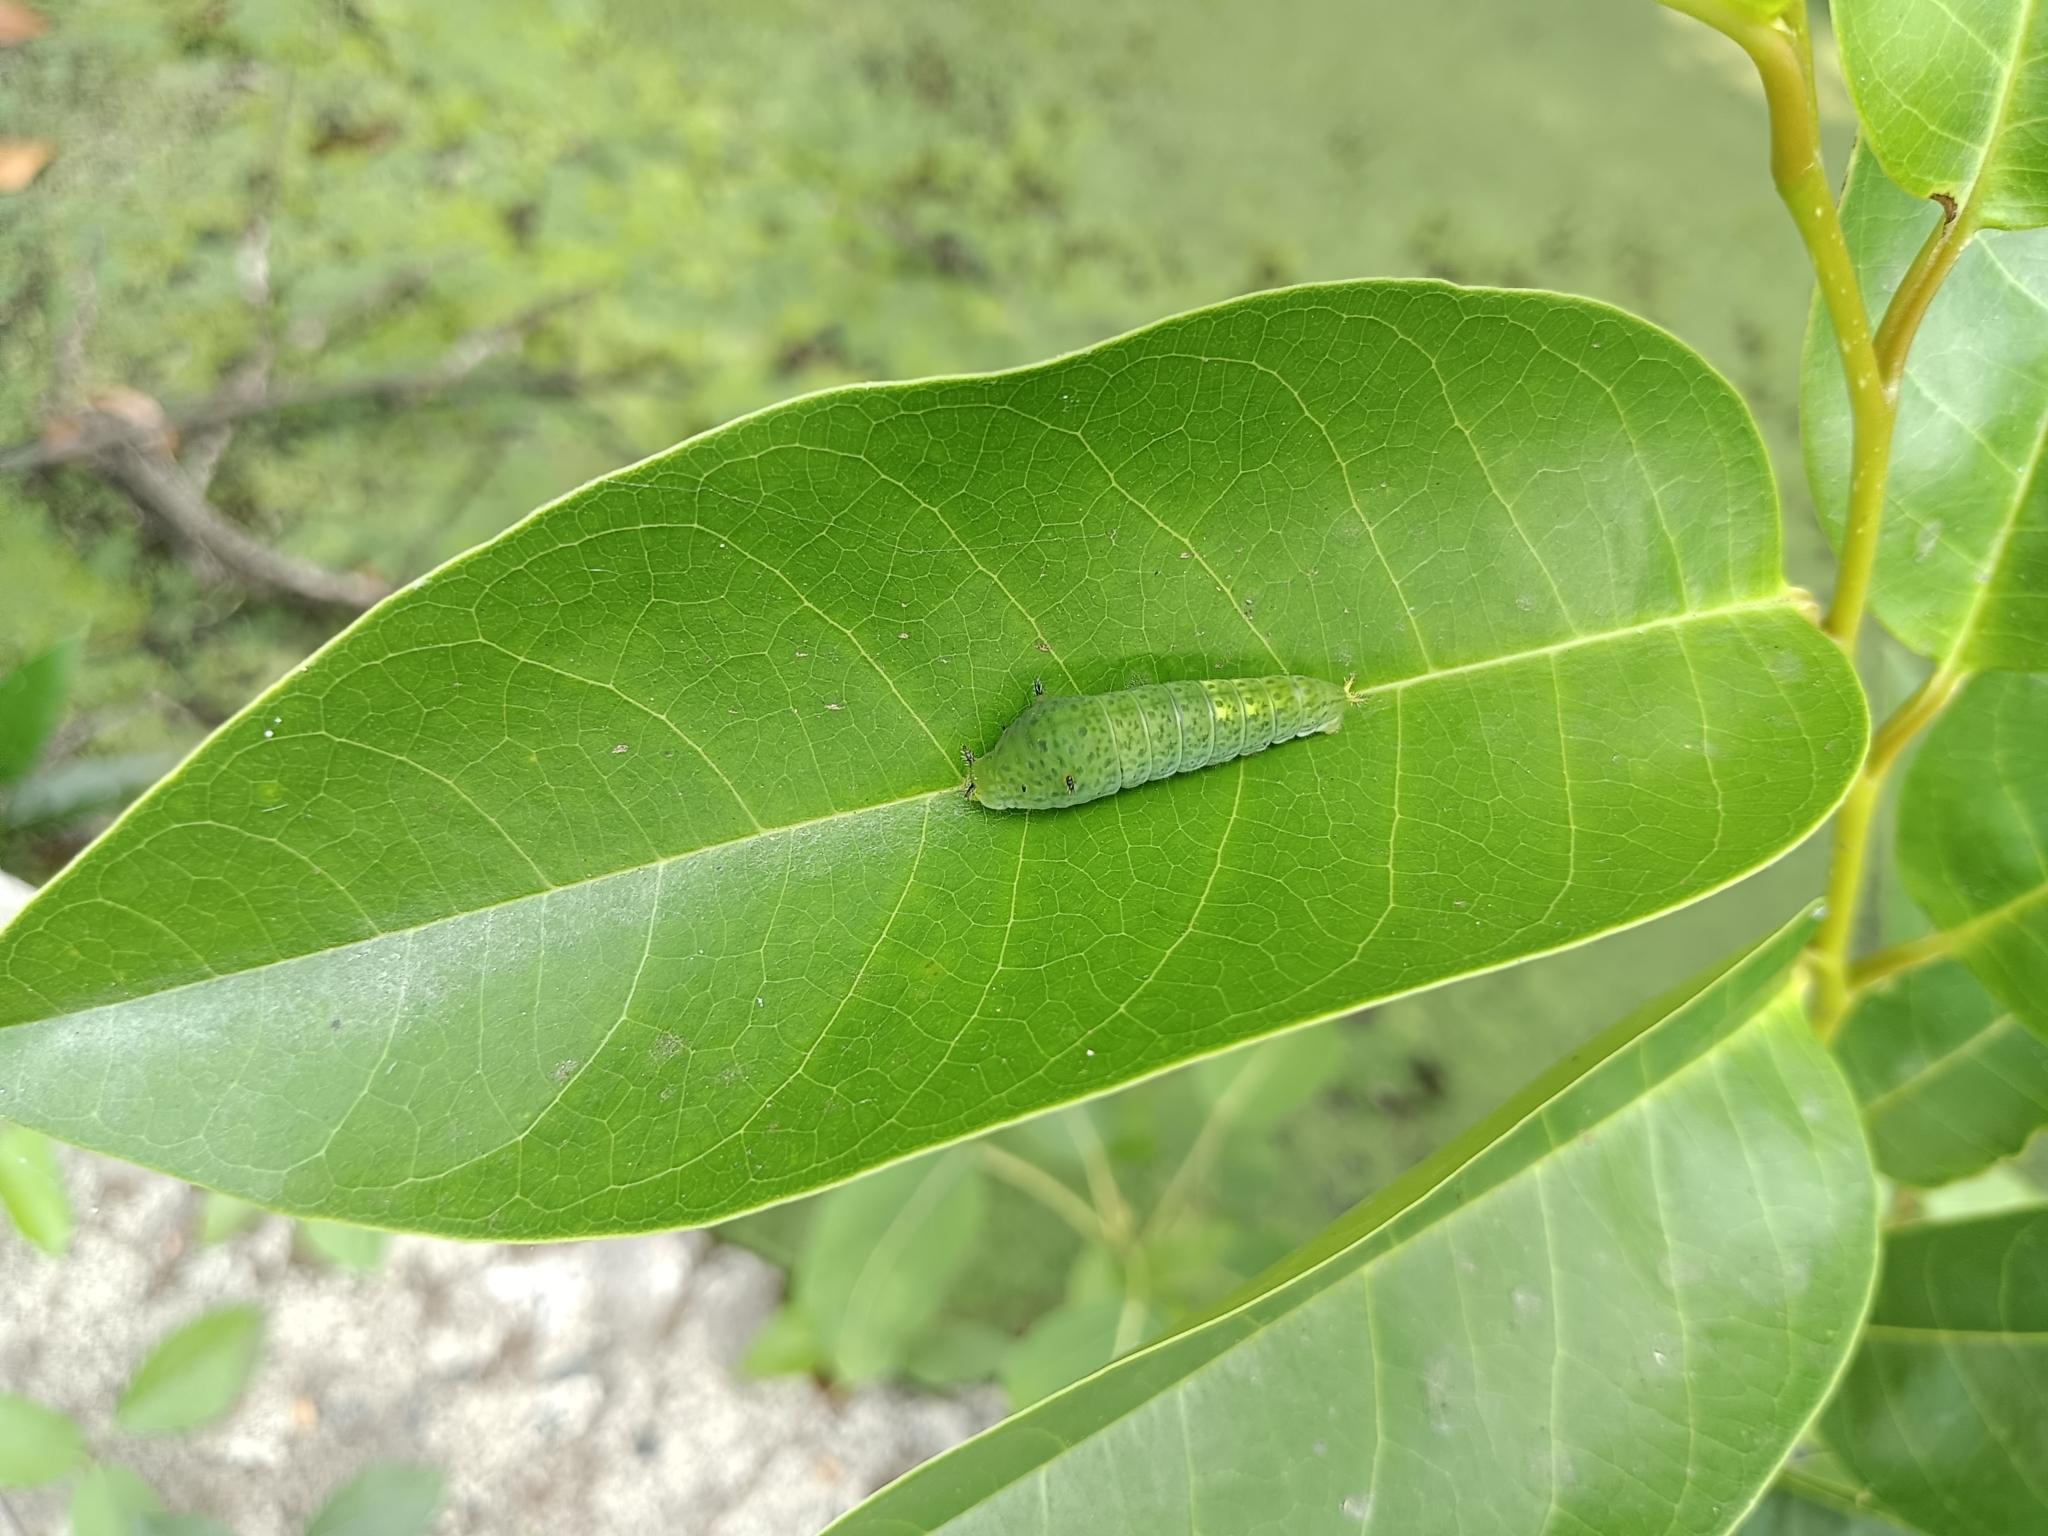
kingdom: Animalia
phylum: Arthropoda
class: Insecta
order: Lepidoptera
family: Papilionidae
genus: Graphium
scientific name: Graphium agamemnon
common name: Tailed jay
